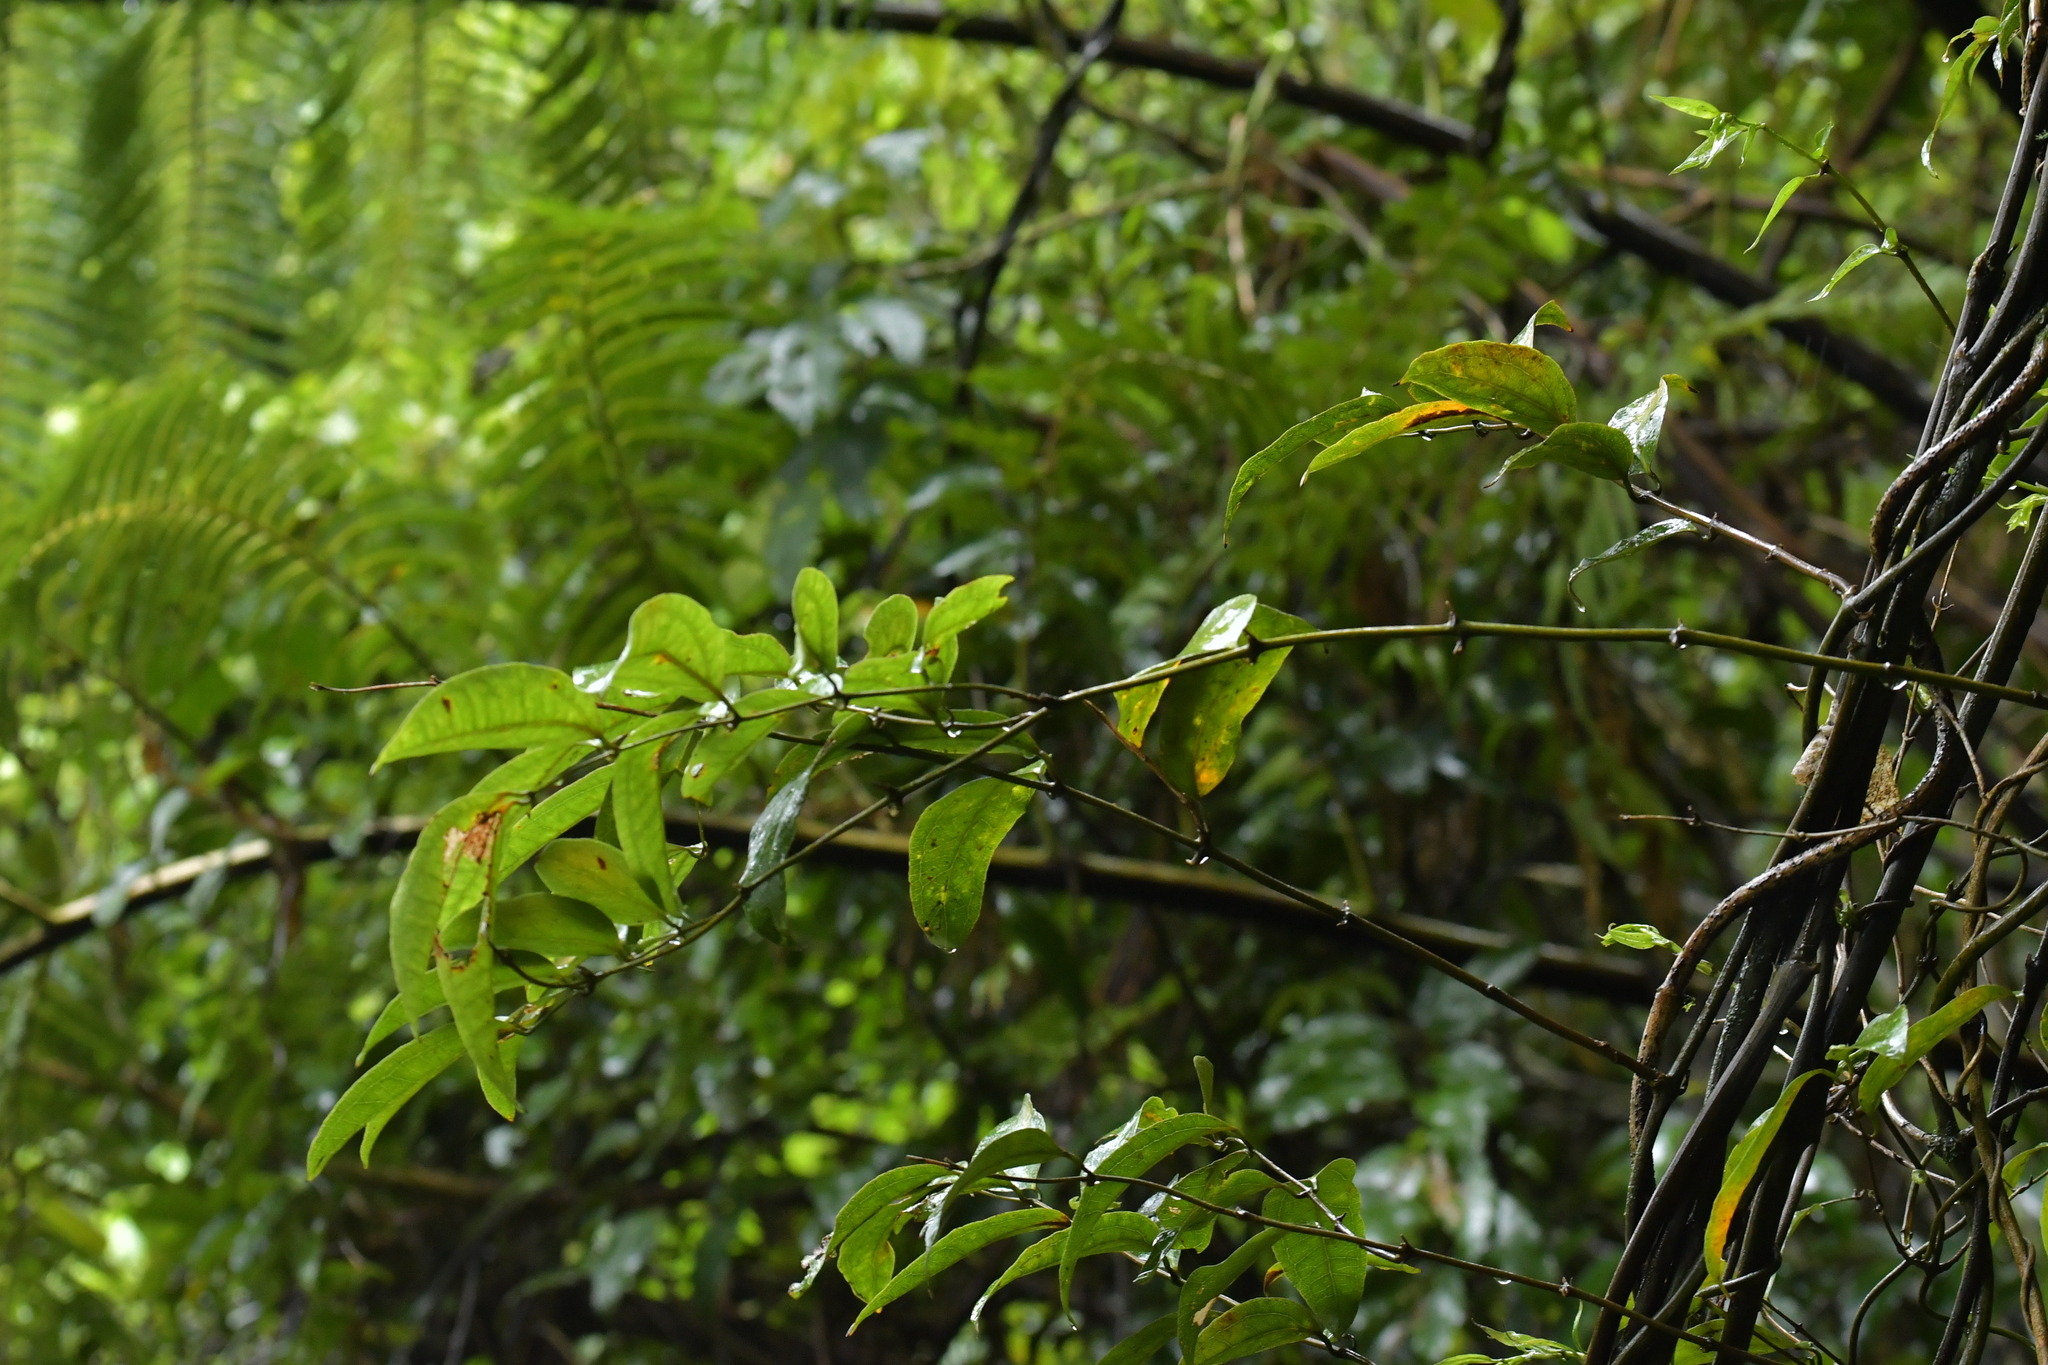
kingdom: Plantae
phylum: Tracheophyta
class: Liliopsida
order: Liliales
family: Ripogonaceae
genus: Ripogonum
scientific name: Ripogonum scandens
